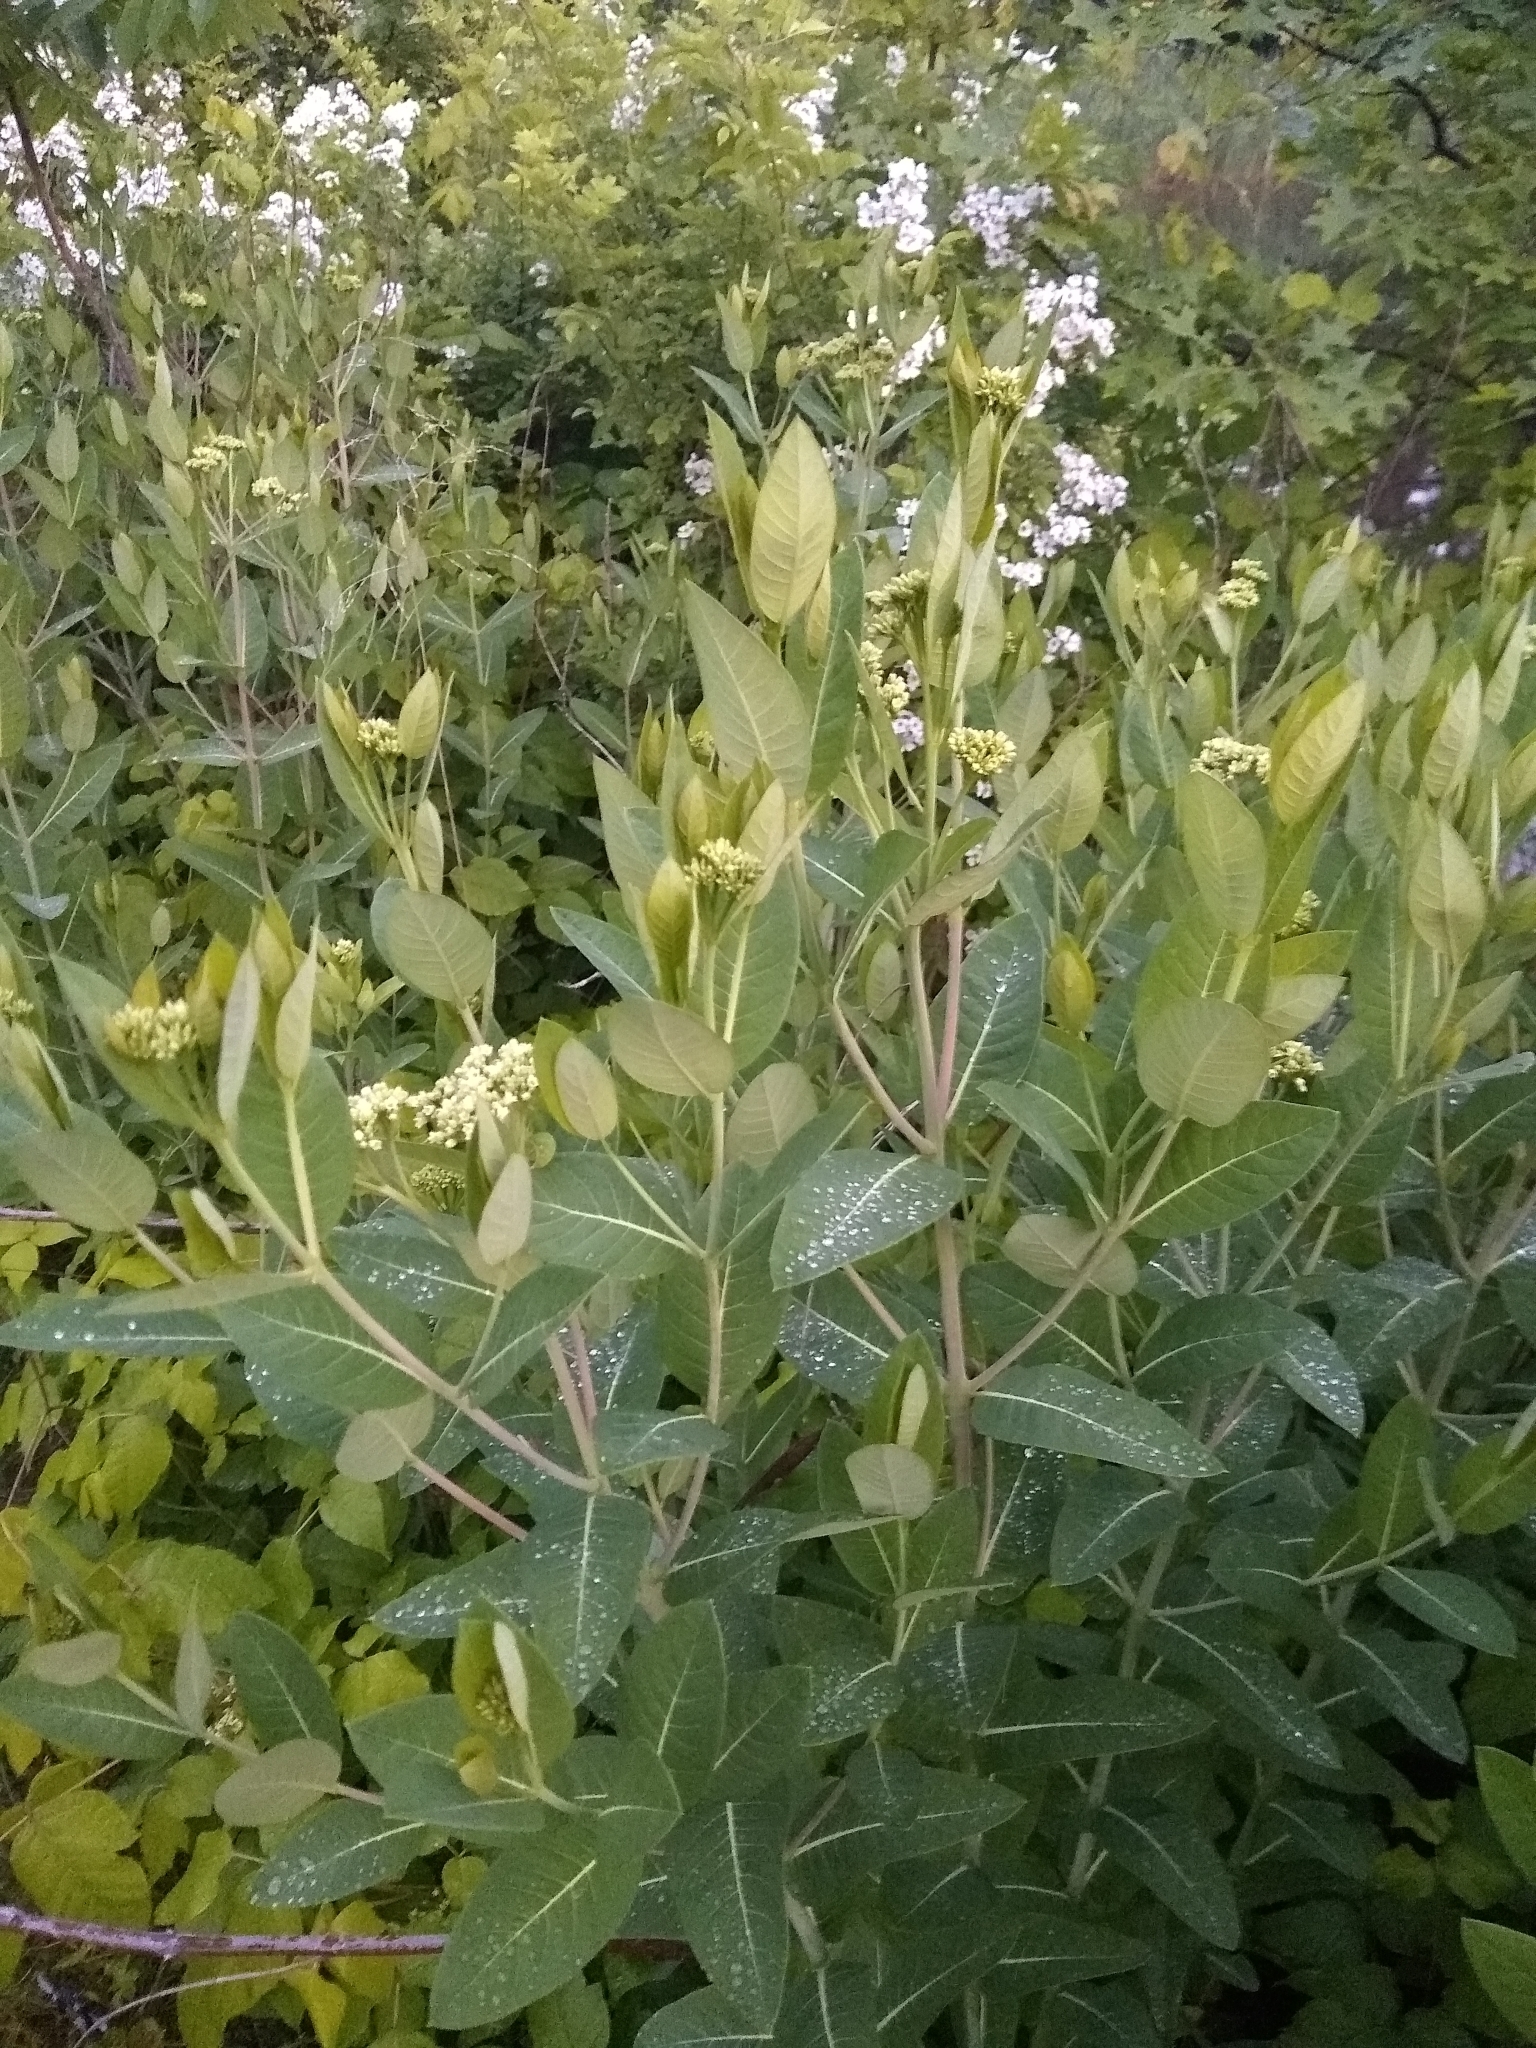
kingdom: Plantae
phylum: Tracheophyta
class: Magnoliopsida
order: Gentianales
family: Apocynaceae
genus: Apocynum
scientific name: Apocynum cannabinum
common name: Hemp dogbane
